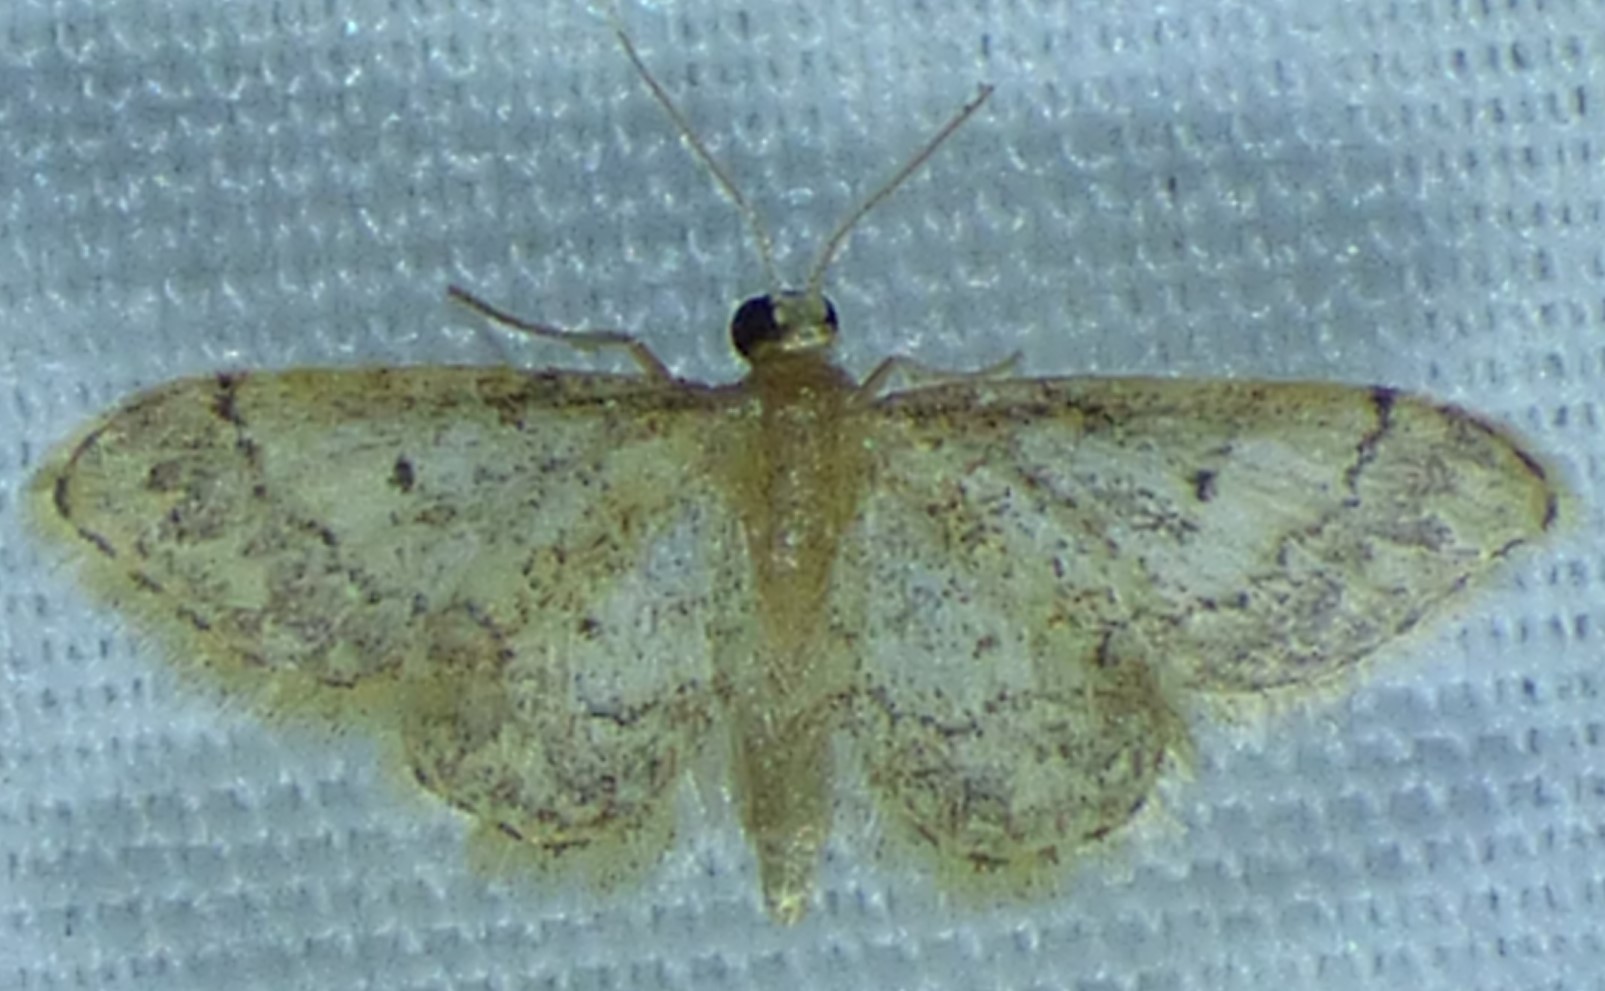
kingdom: Animalia
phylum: Arthropoda
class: Insecta
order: Lepidoptera
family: Geometridae
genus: Idaea
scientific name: Idaea celtima
